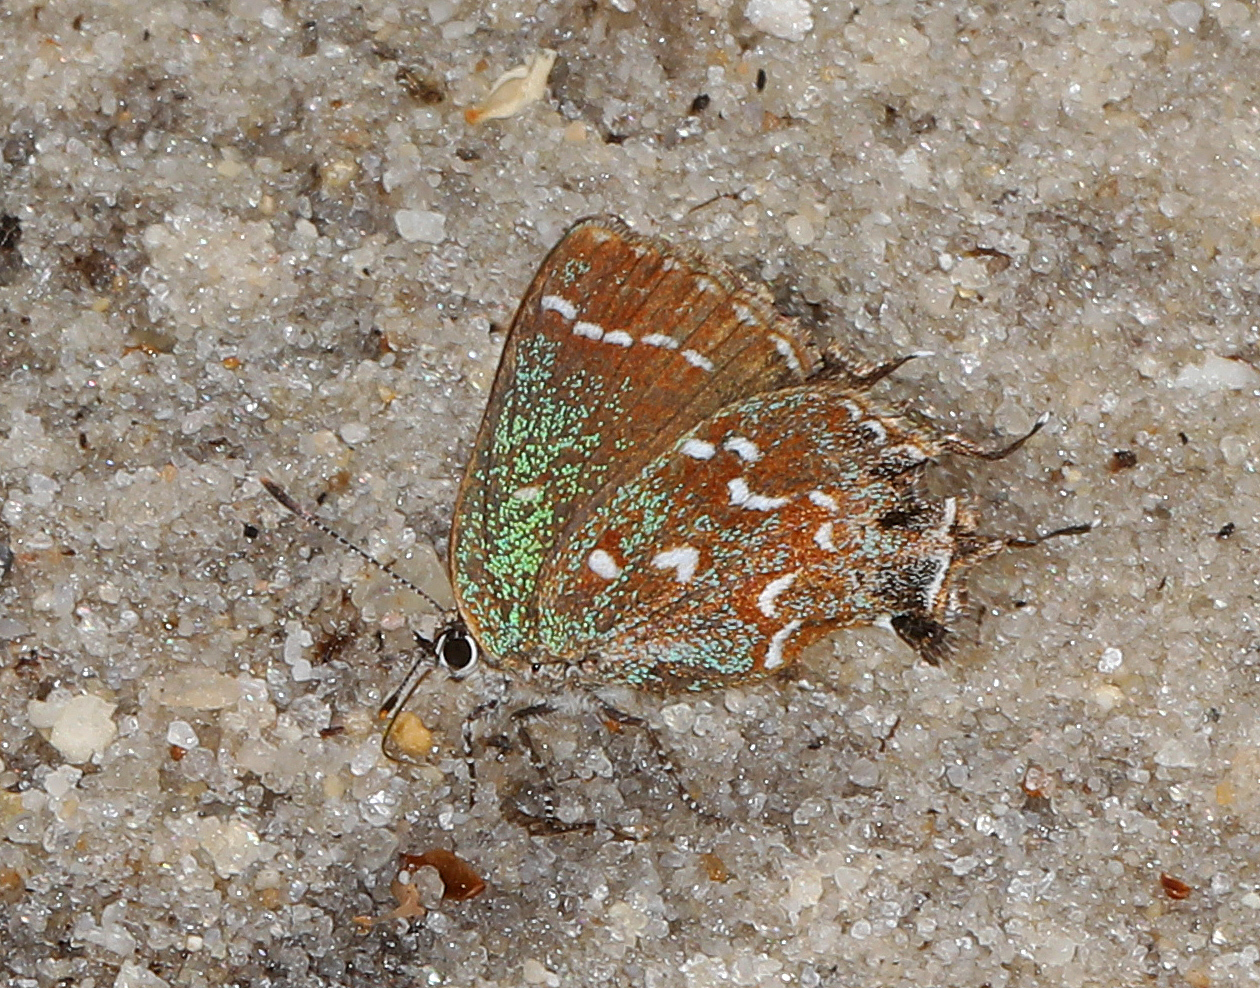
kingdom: Animalia
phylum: Arthropoda
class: Insecta
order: Lepidoptera
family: Lycaenidae
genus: Mitoura
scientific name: Mitoura hesseli
